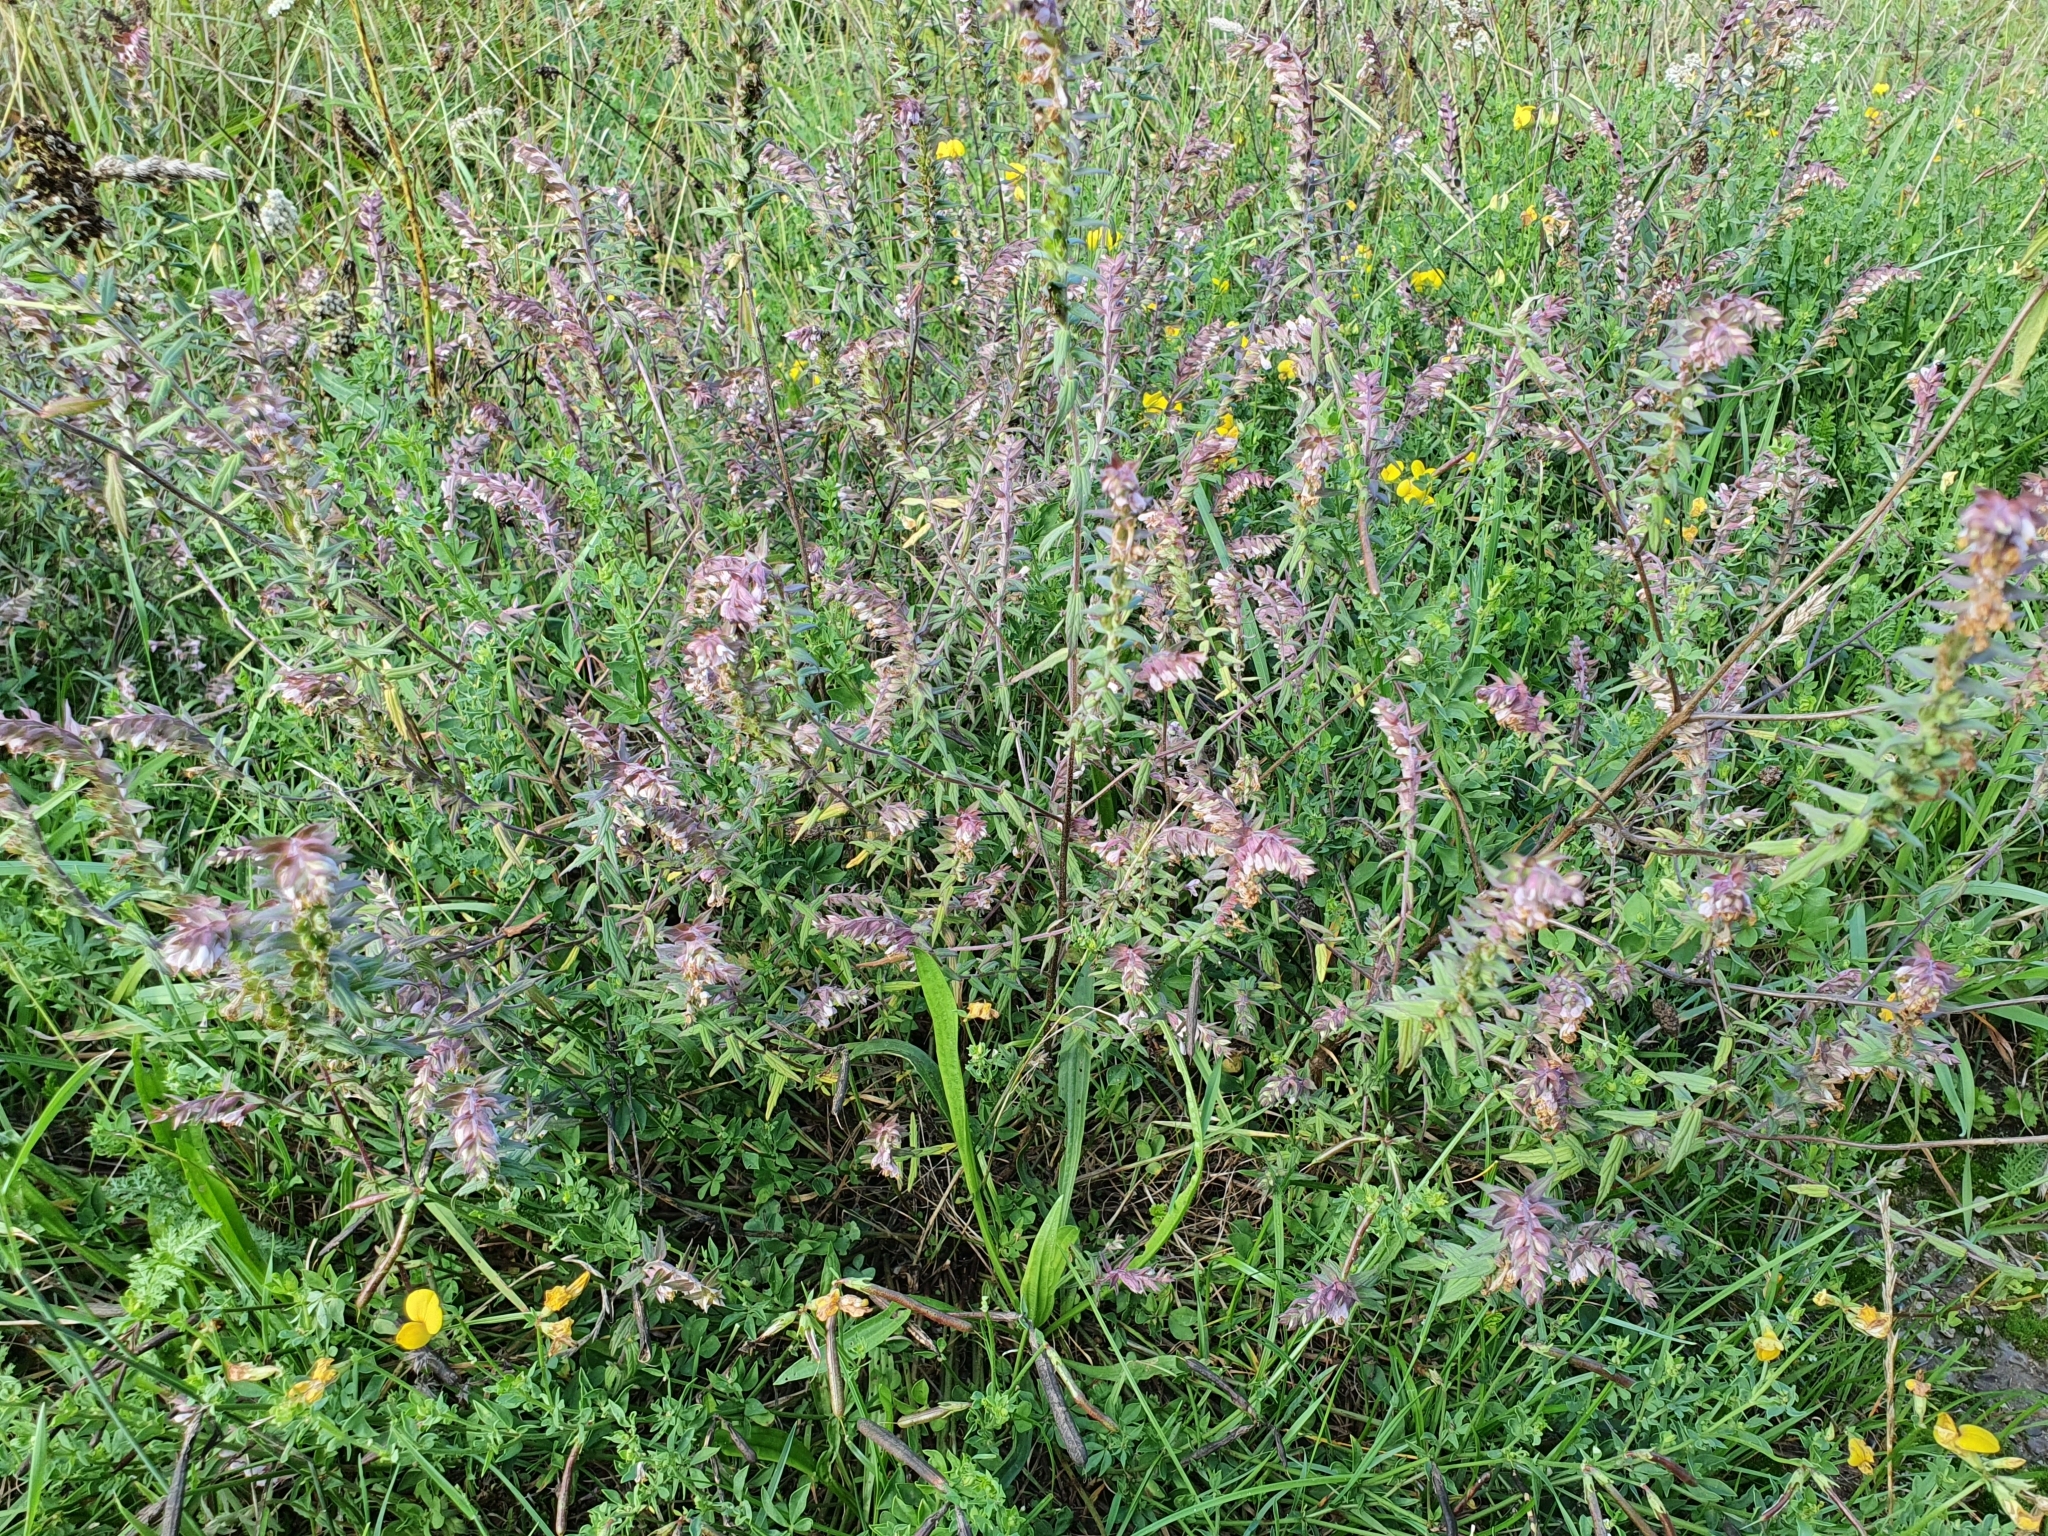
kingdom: Plantae
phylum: Tracheophyta
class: Magnoliopsida
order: Lamiales
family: Orobanchaceae
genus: Odontites
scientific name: Odontites vulgaris
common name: Broomrape
